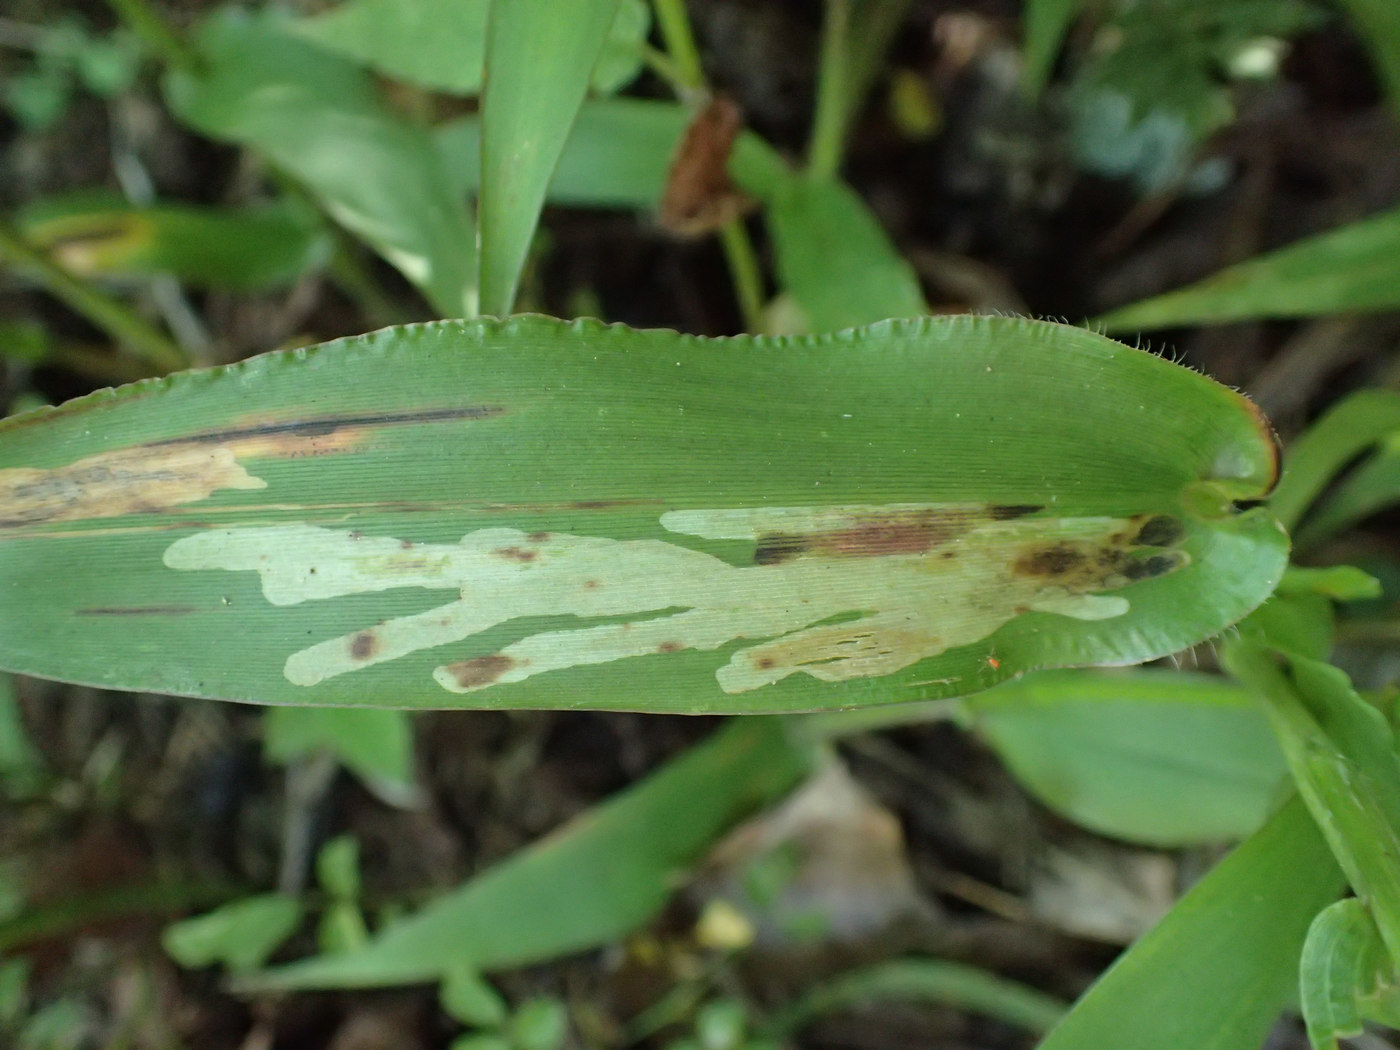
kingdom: Animalia
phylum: Arthropoda
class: Insecta
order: Diptera
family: Agromyzidae
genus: Cerodontha
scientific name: Cerodontha angulata
